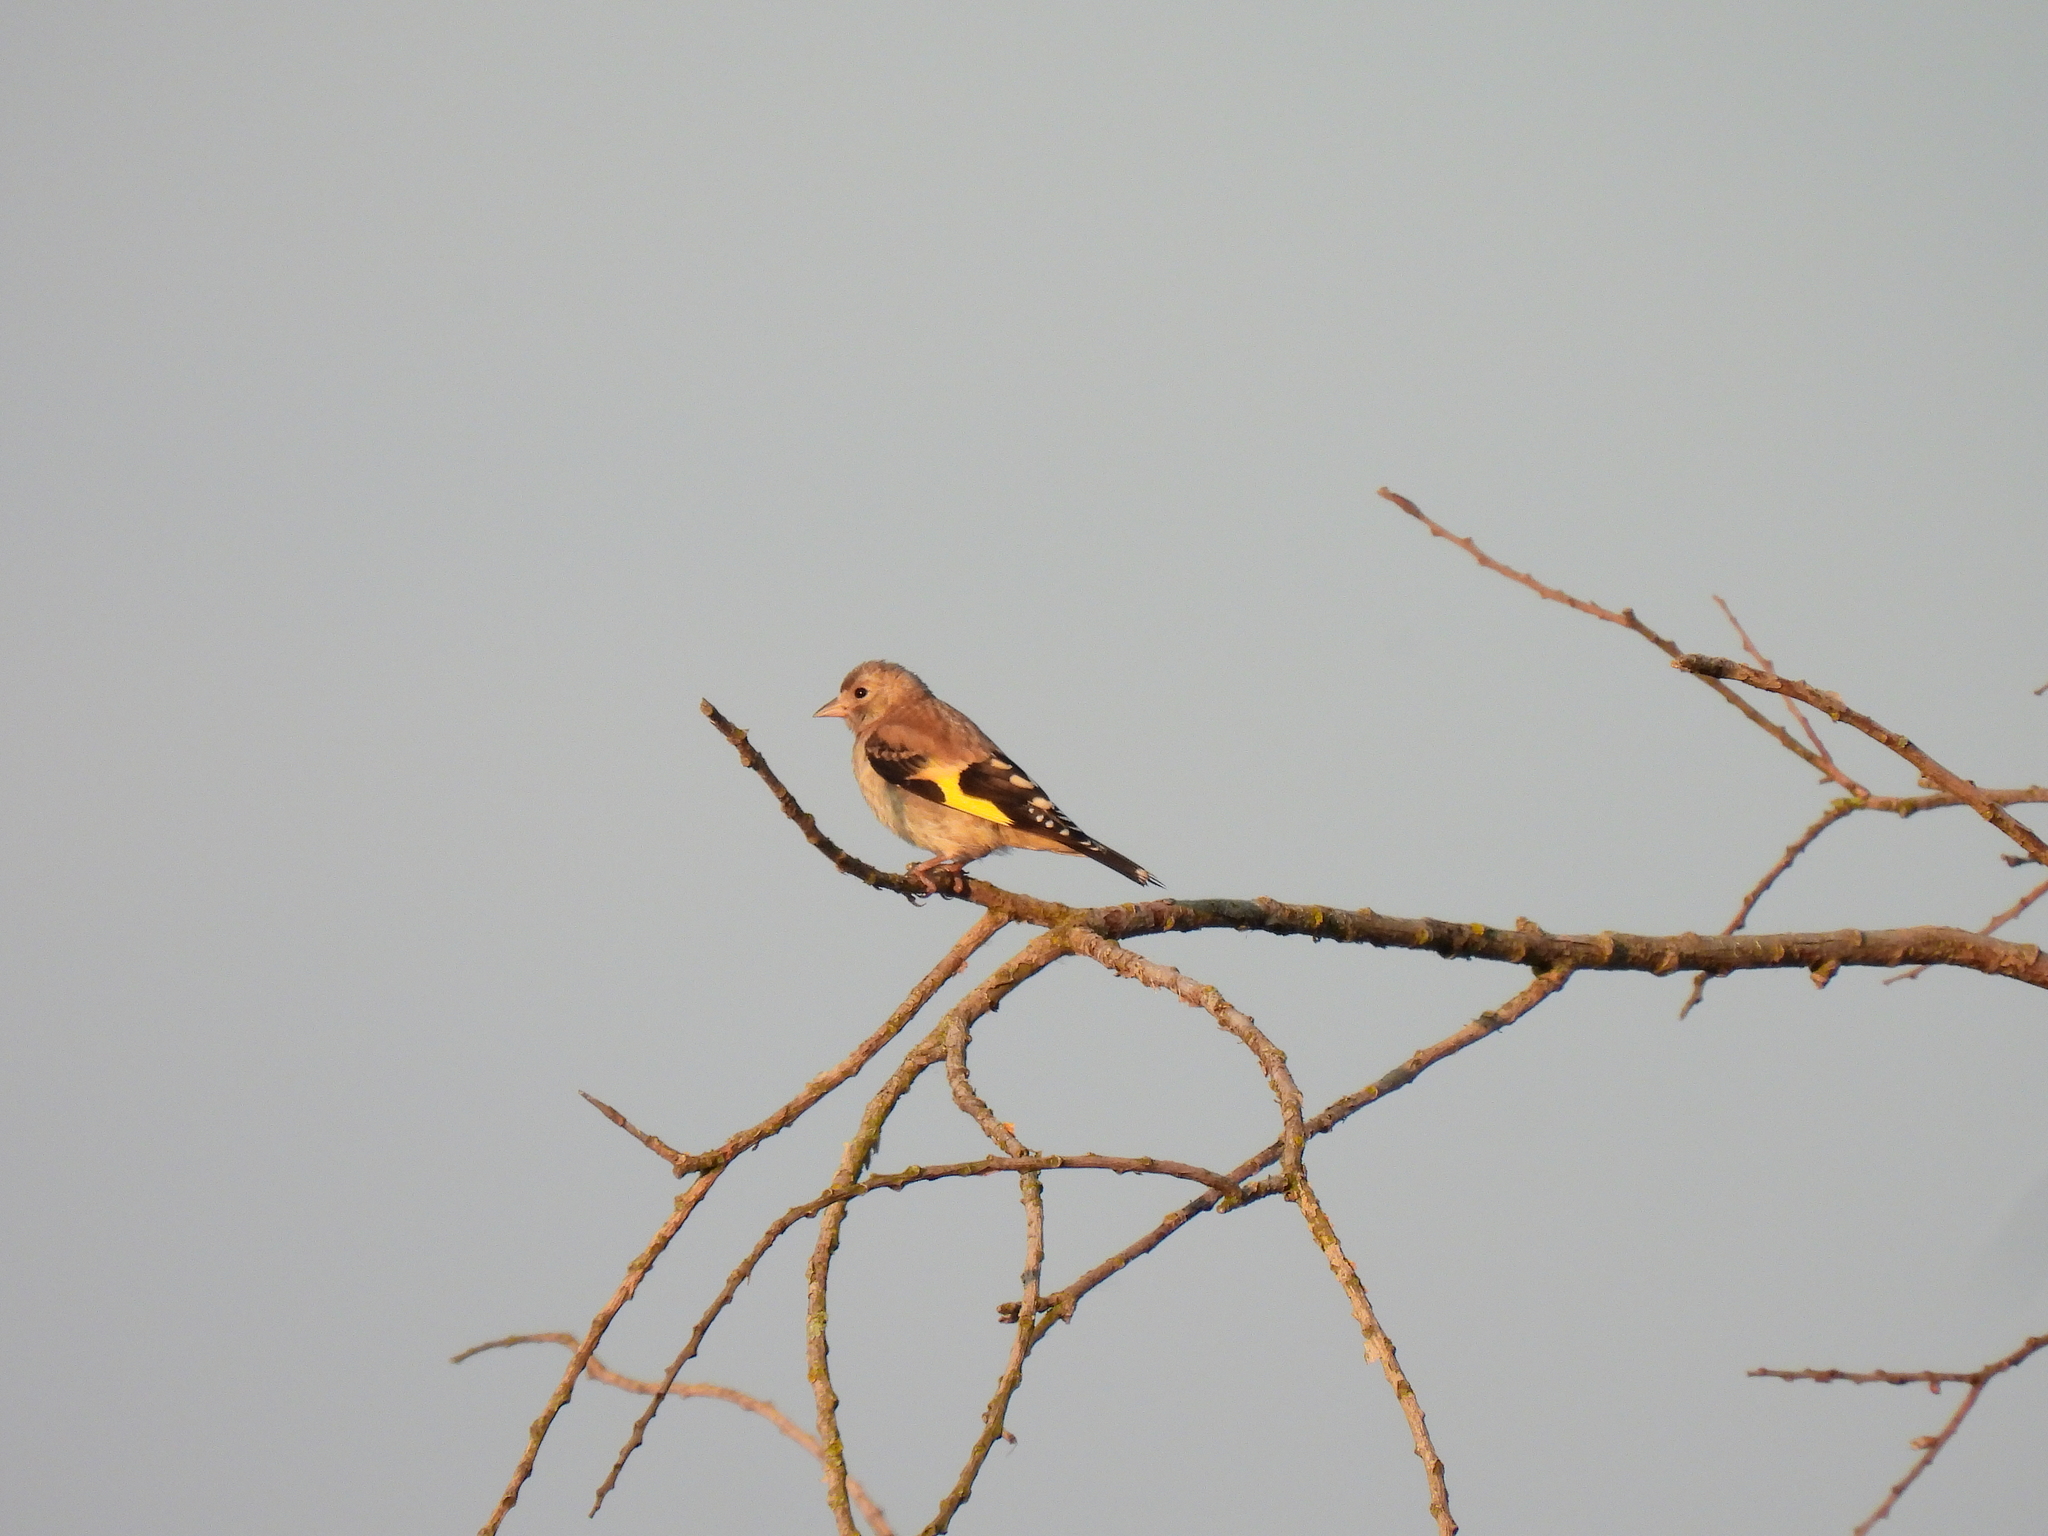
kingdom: Animalia
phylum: Chordata
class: Aves
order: Passeriformes
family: Fringillidae
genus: Carduelis
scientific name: Carduelis carduelis
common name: European goldfinch
